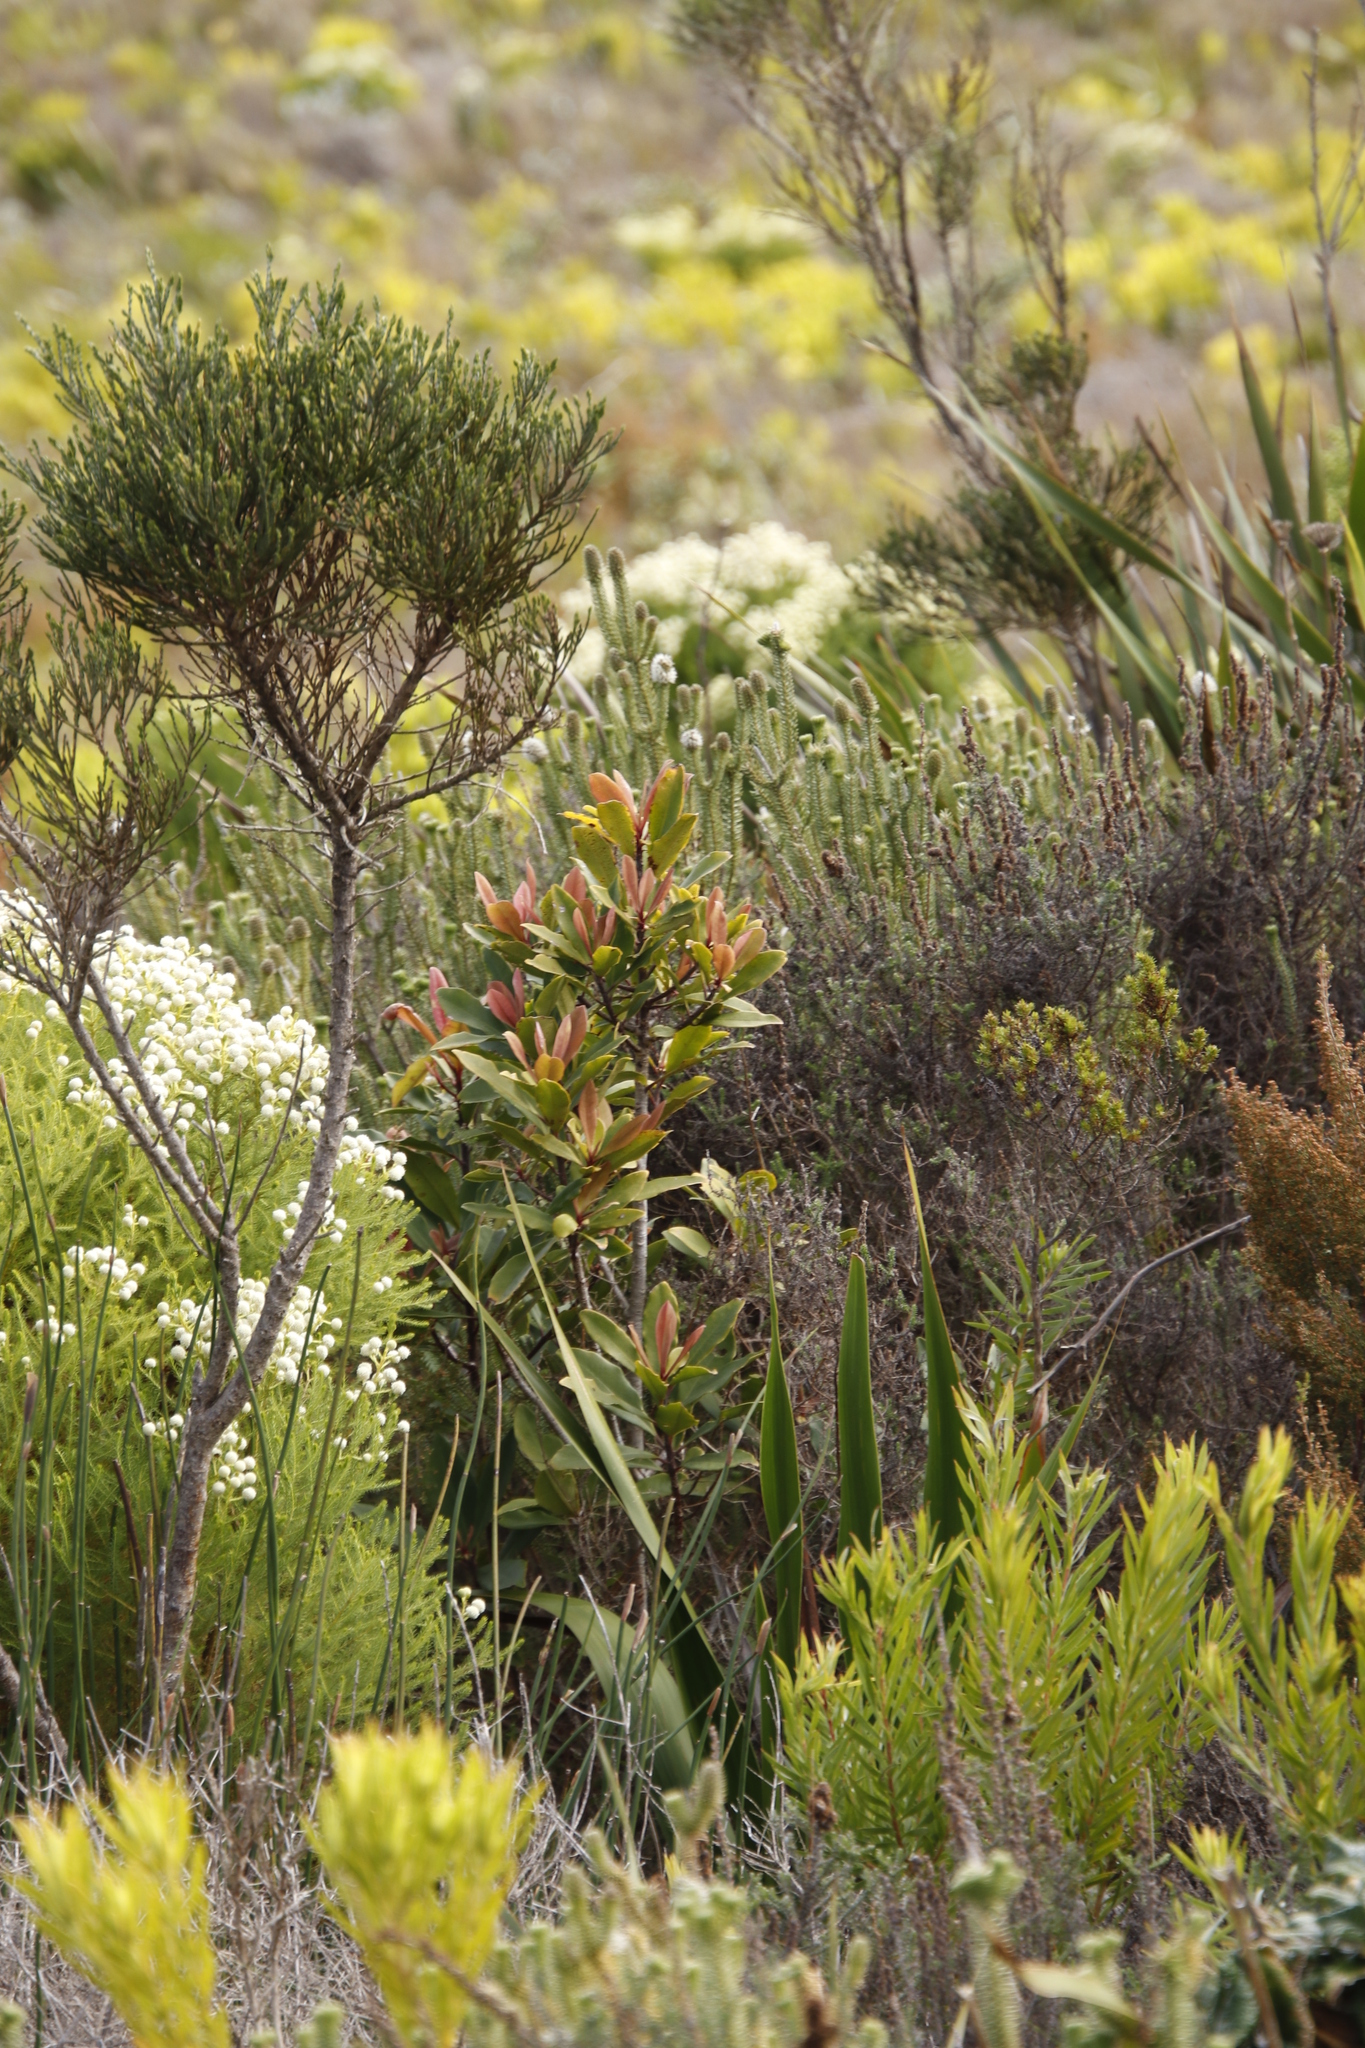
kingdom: Plantae
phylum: Tracheophyta
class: Magnoliopsida
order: Ericales
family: Primulaceae
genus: Myrsine
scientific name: Myrsine melanophloeos
